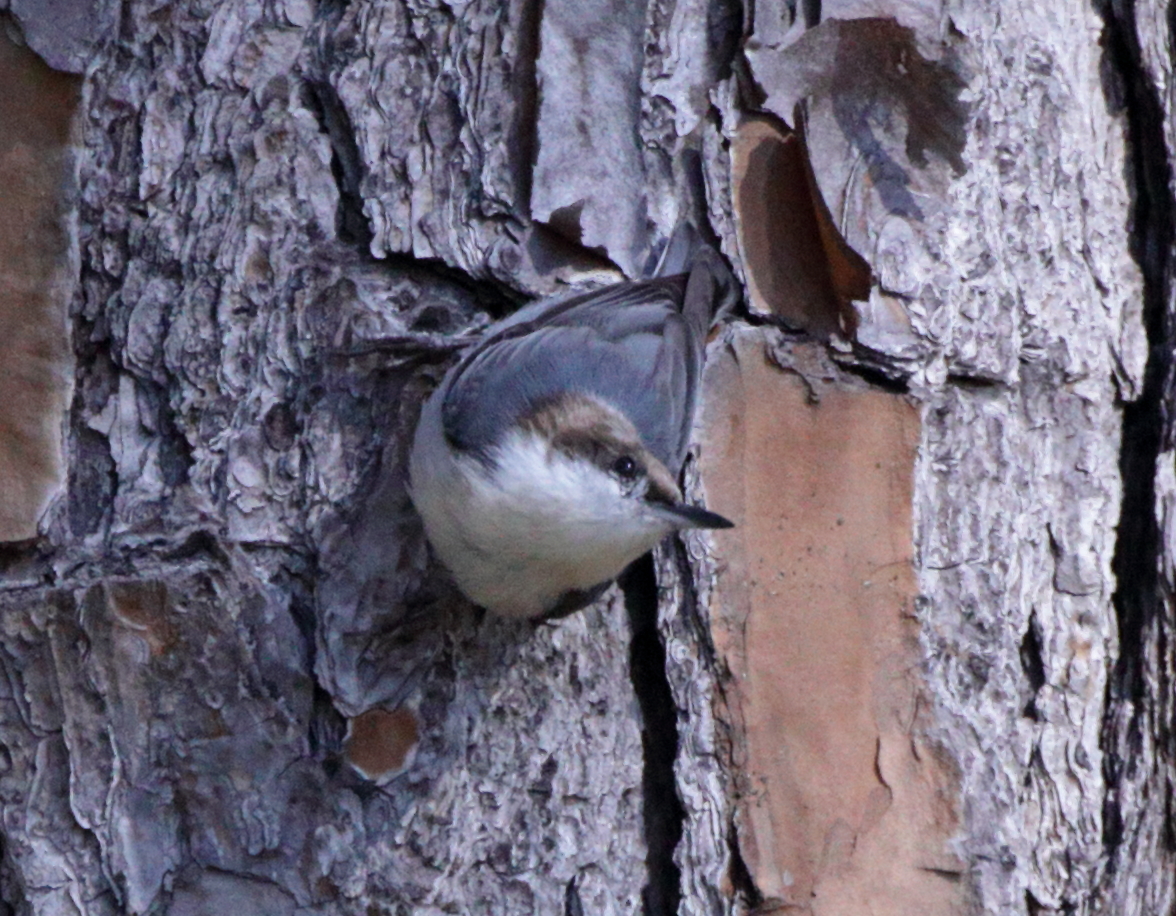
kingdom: Animalia
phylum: Chordata
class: Aves
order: Passeriformes
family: Sittidae
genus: Sitta
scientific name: Sitta pusilla
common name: Brown-headed nuthatch
